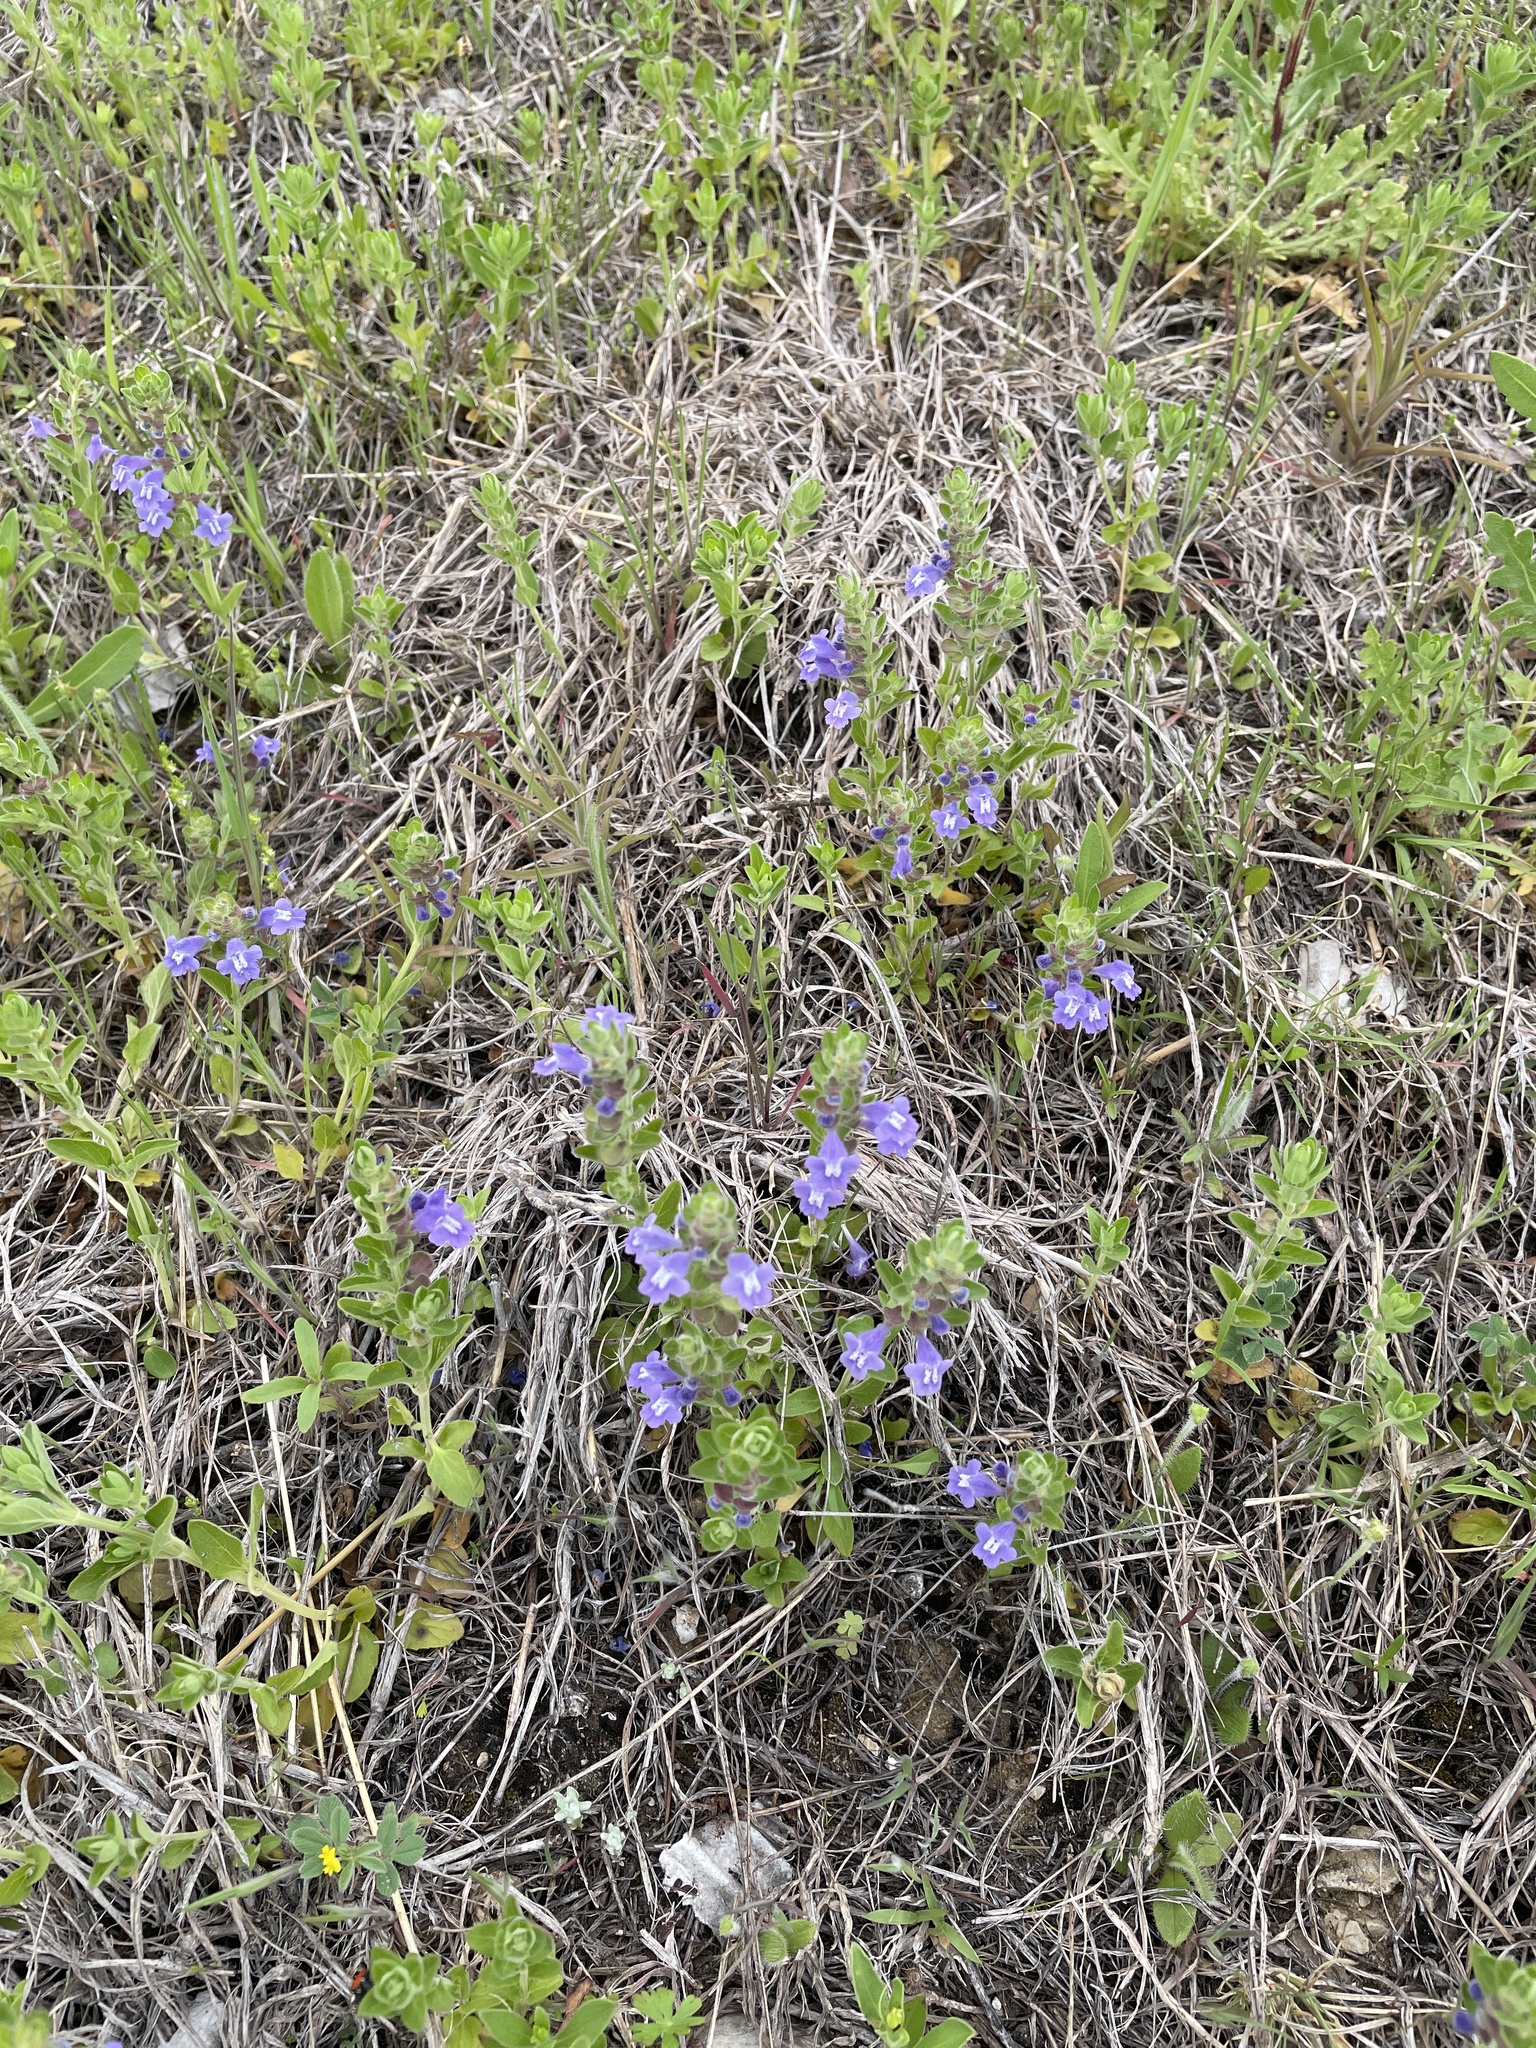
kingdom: Plantae
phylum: Tracheophyta
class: Magnoliopsida
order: Lamiales
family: Lamiaceae
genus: Scutellaria
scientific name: Scutellaria drummondii
